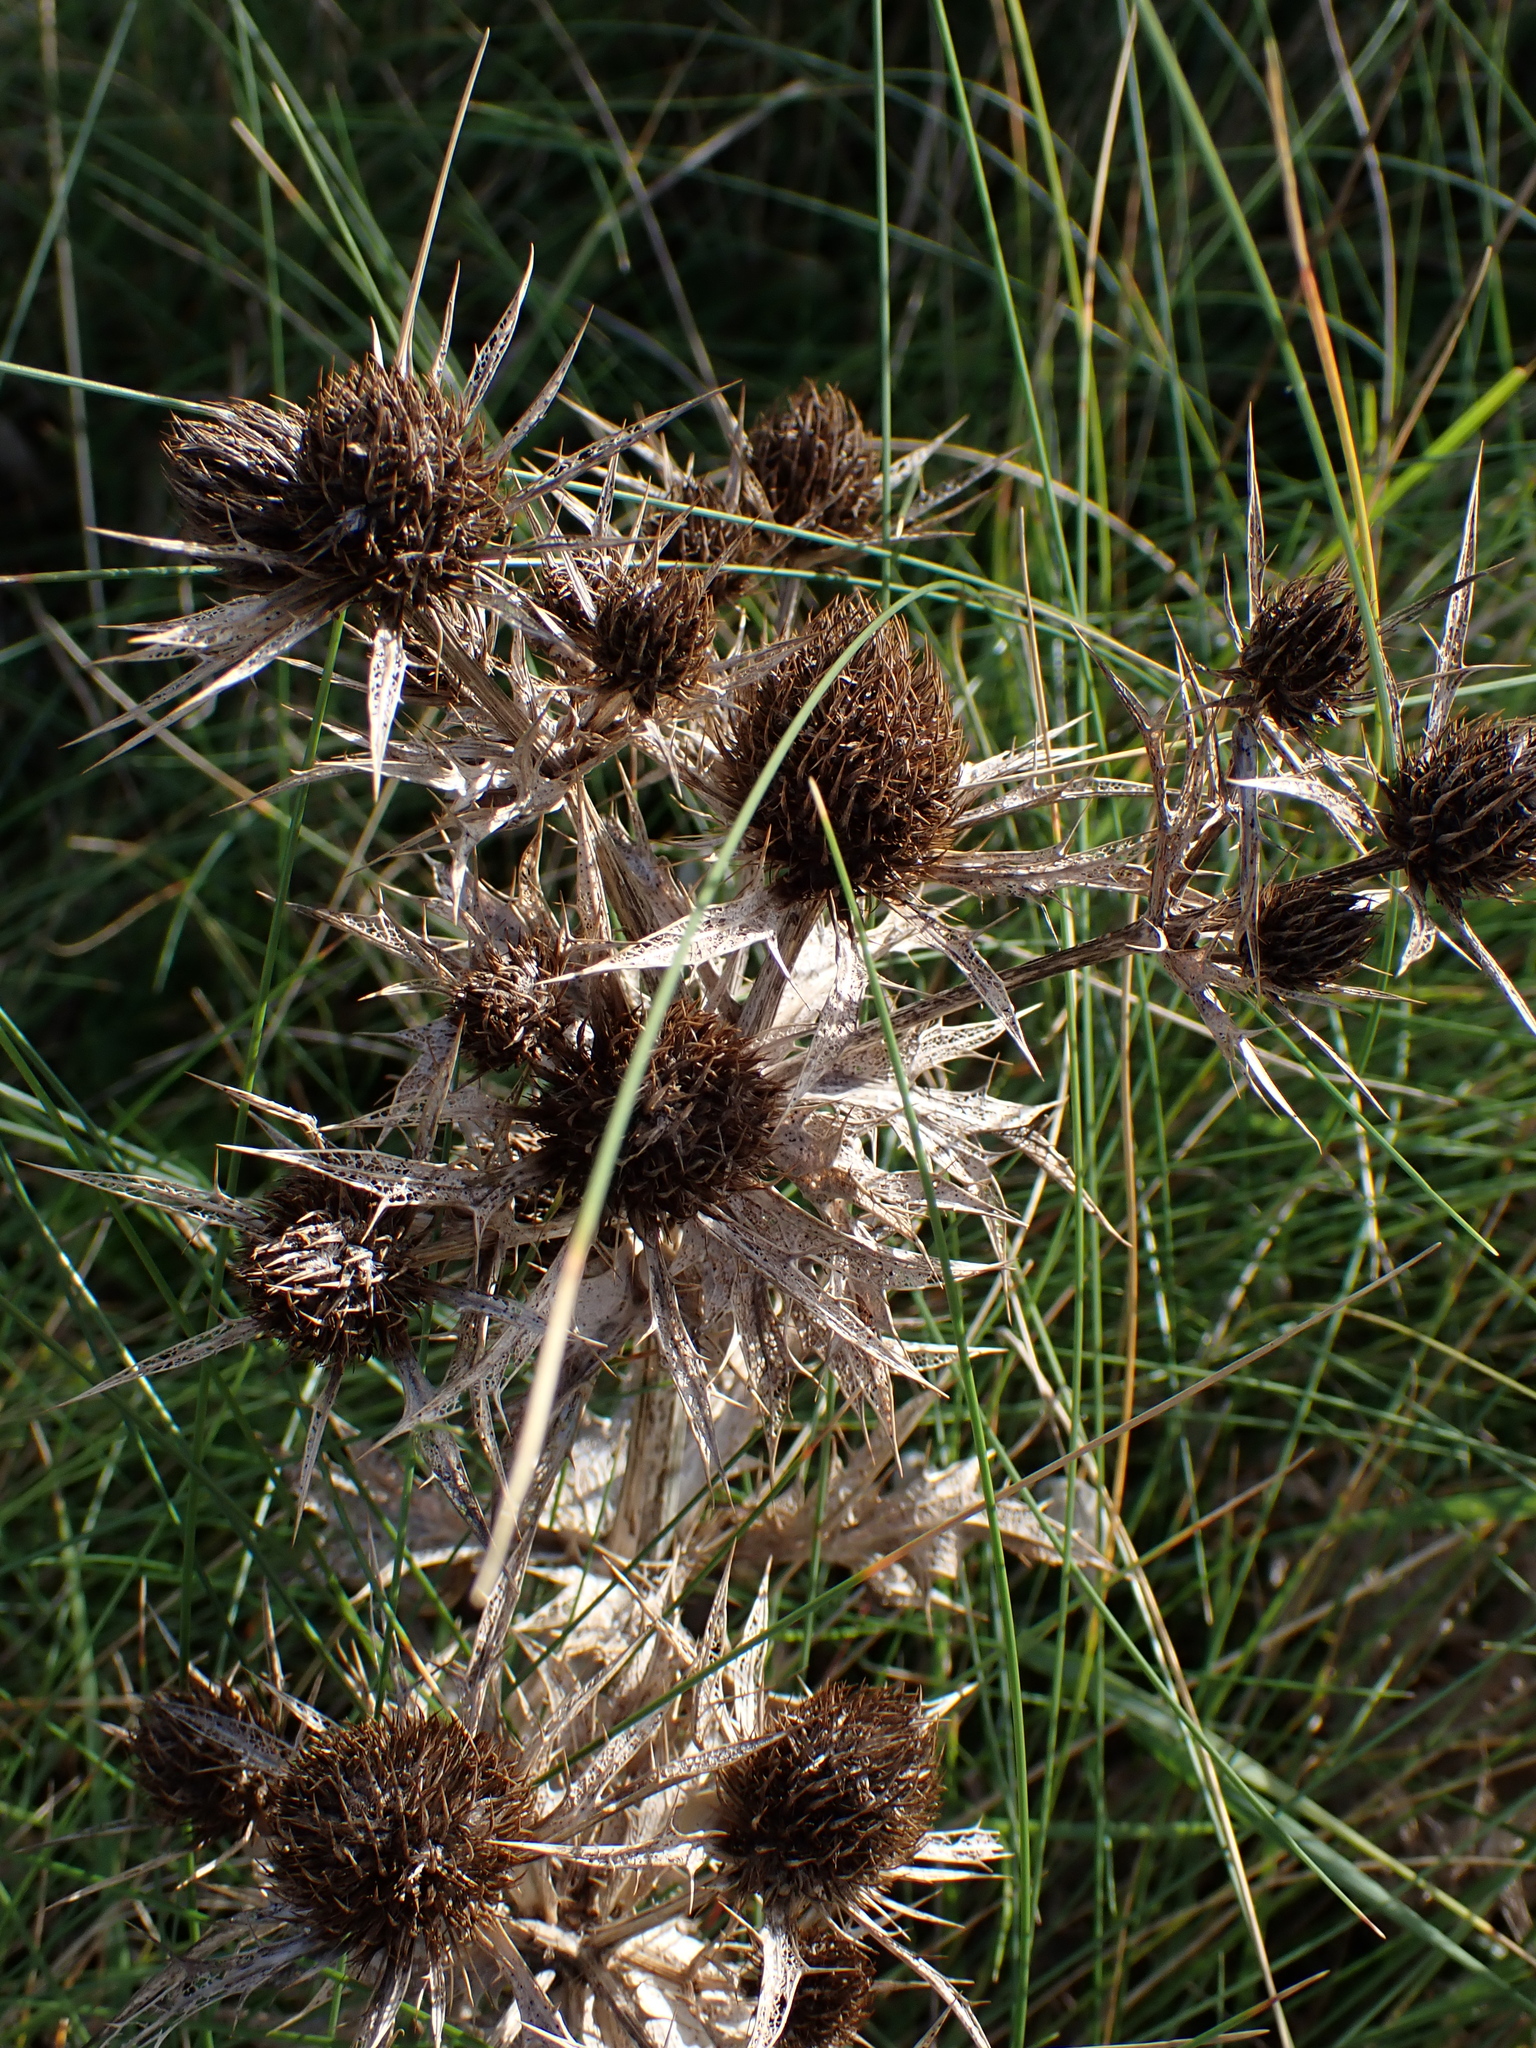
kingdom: Plantae
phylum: Tracheophyta
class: Magnoliopsida
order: Apiales
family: Apiaceae
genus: Eryngium
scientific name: Eryngium campestre
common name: Field eryngo
